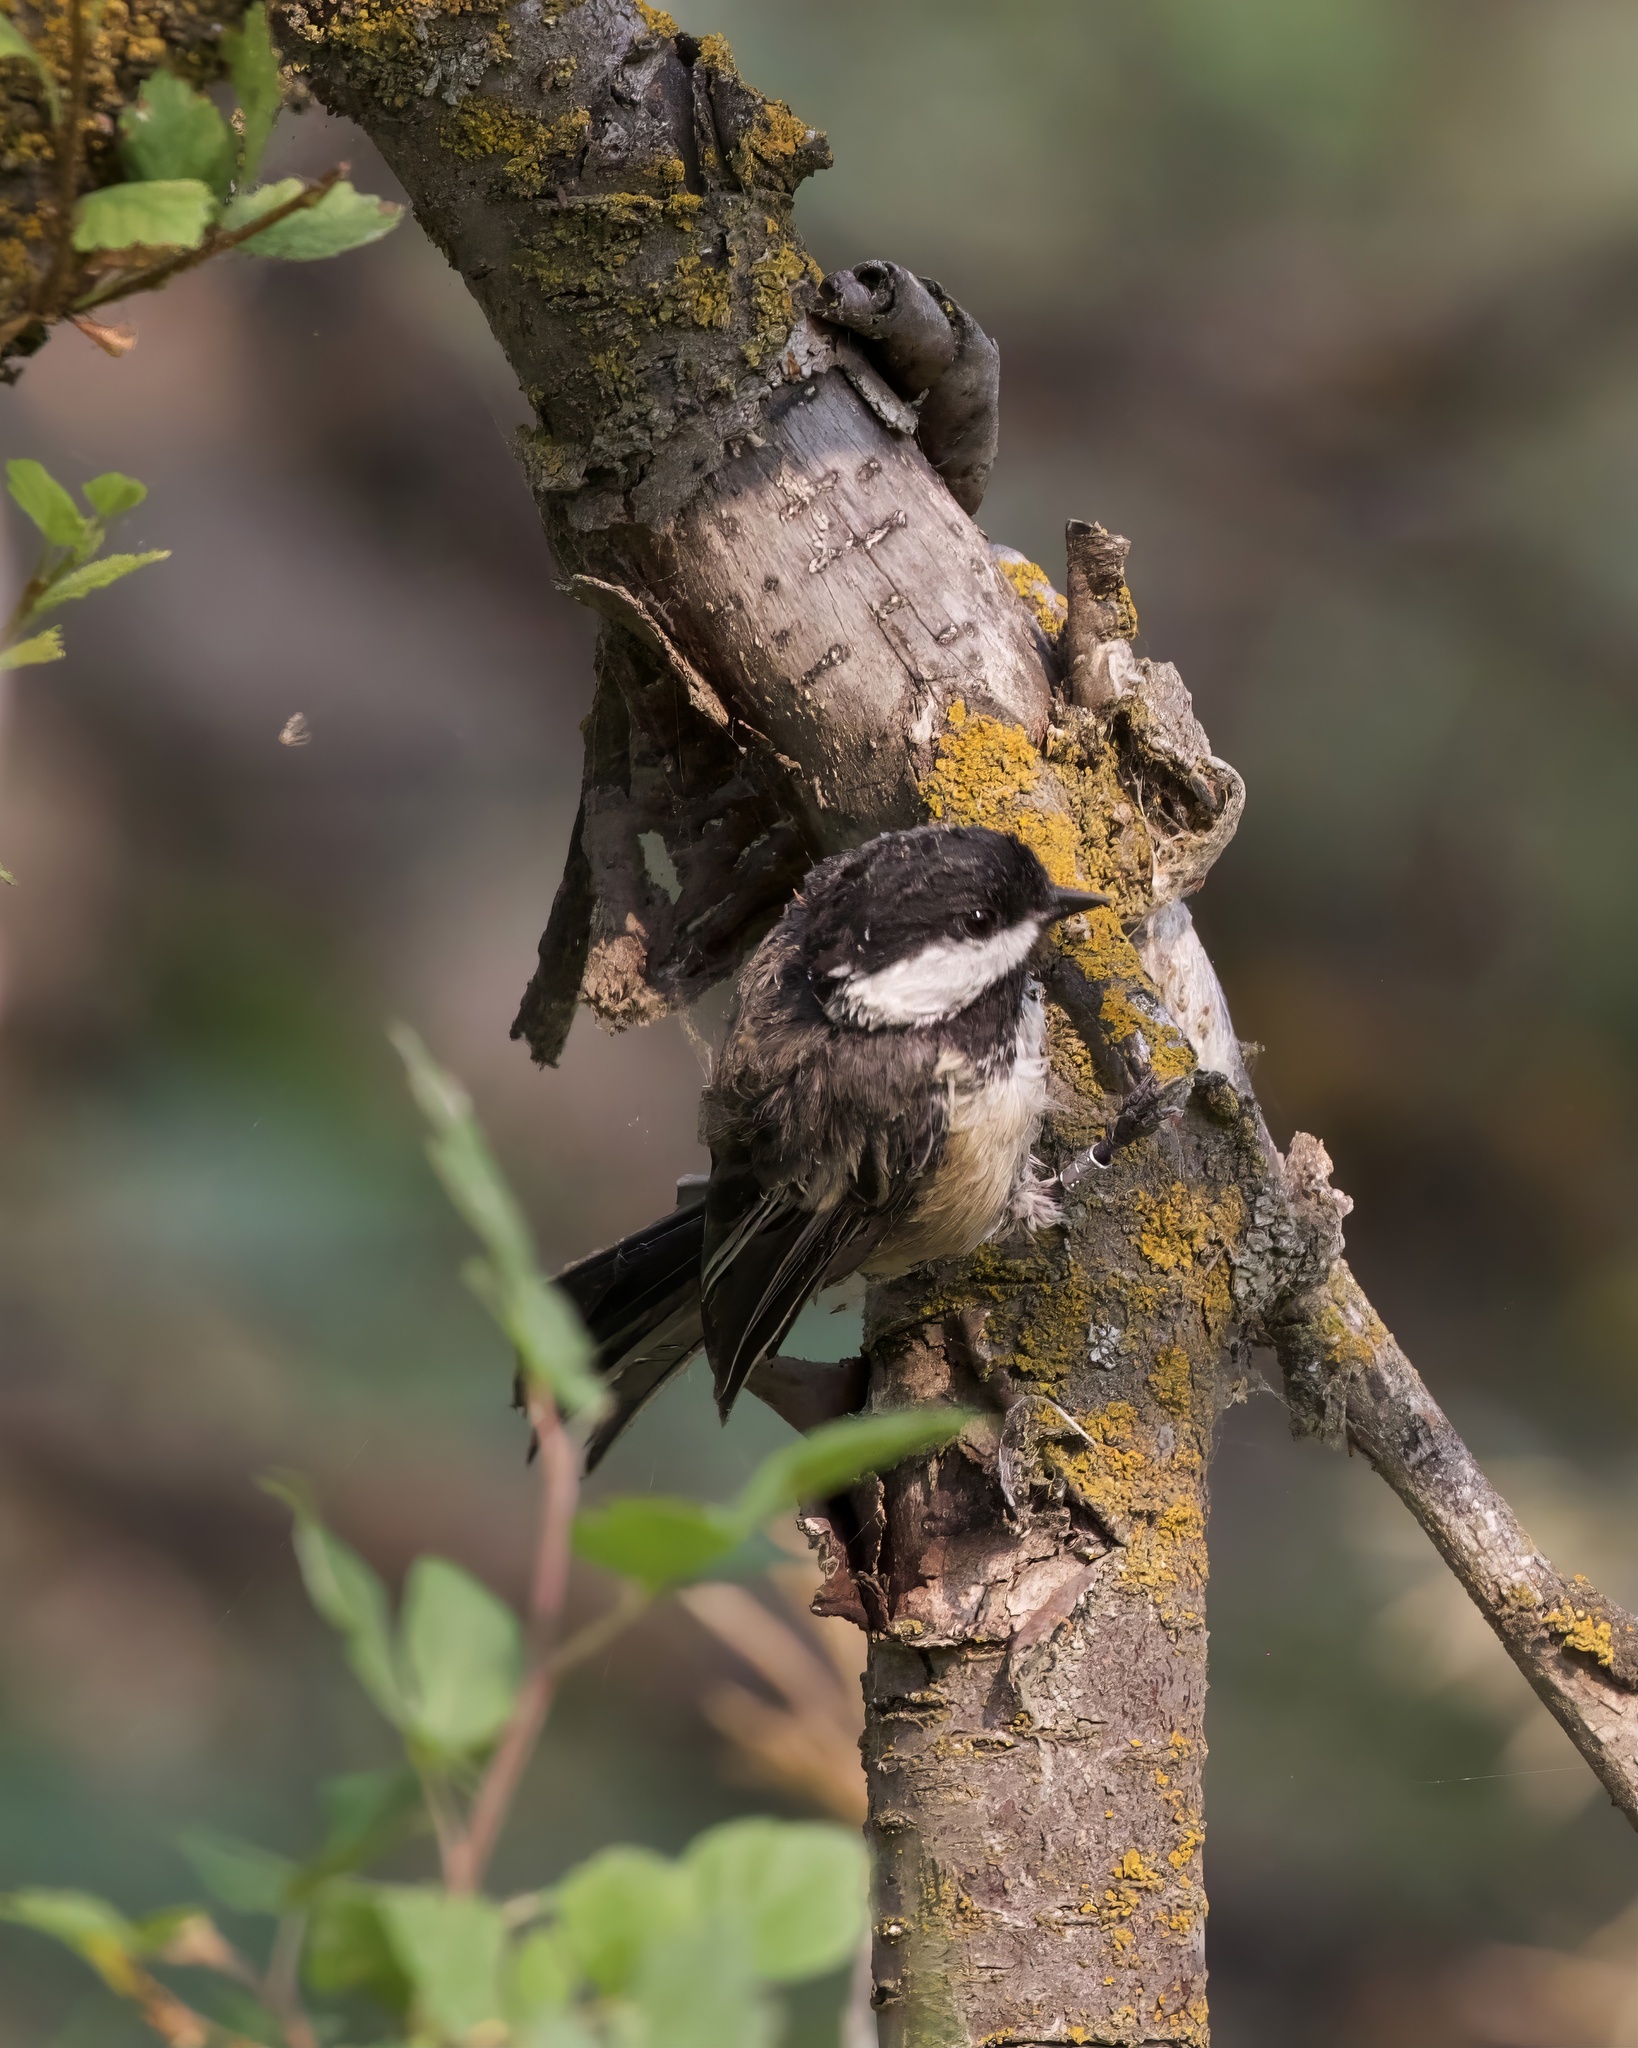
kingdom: Animalia
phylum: Chordata
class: Aves
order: Passeriformes
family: Paridae
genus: Poecile
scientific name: Poecile atricapillus
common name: Black-capped chickadee
